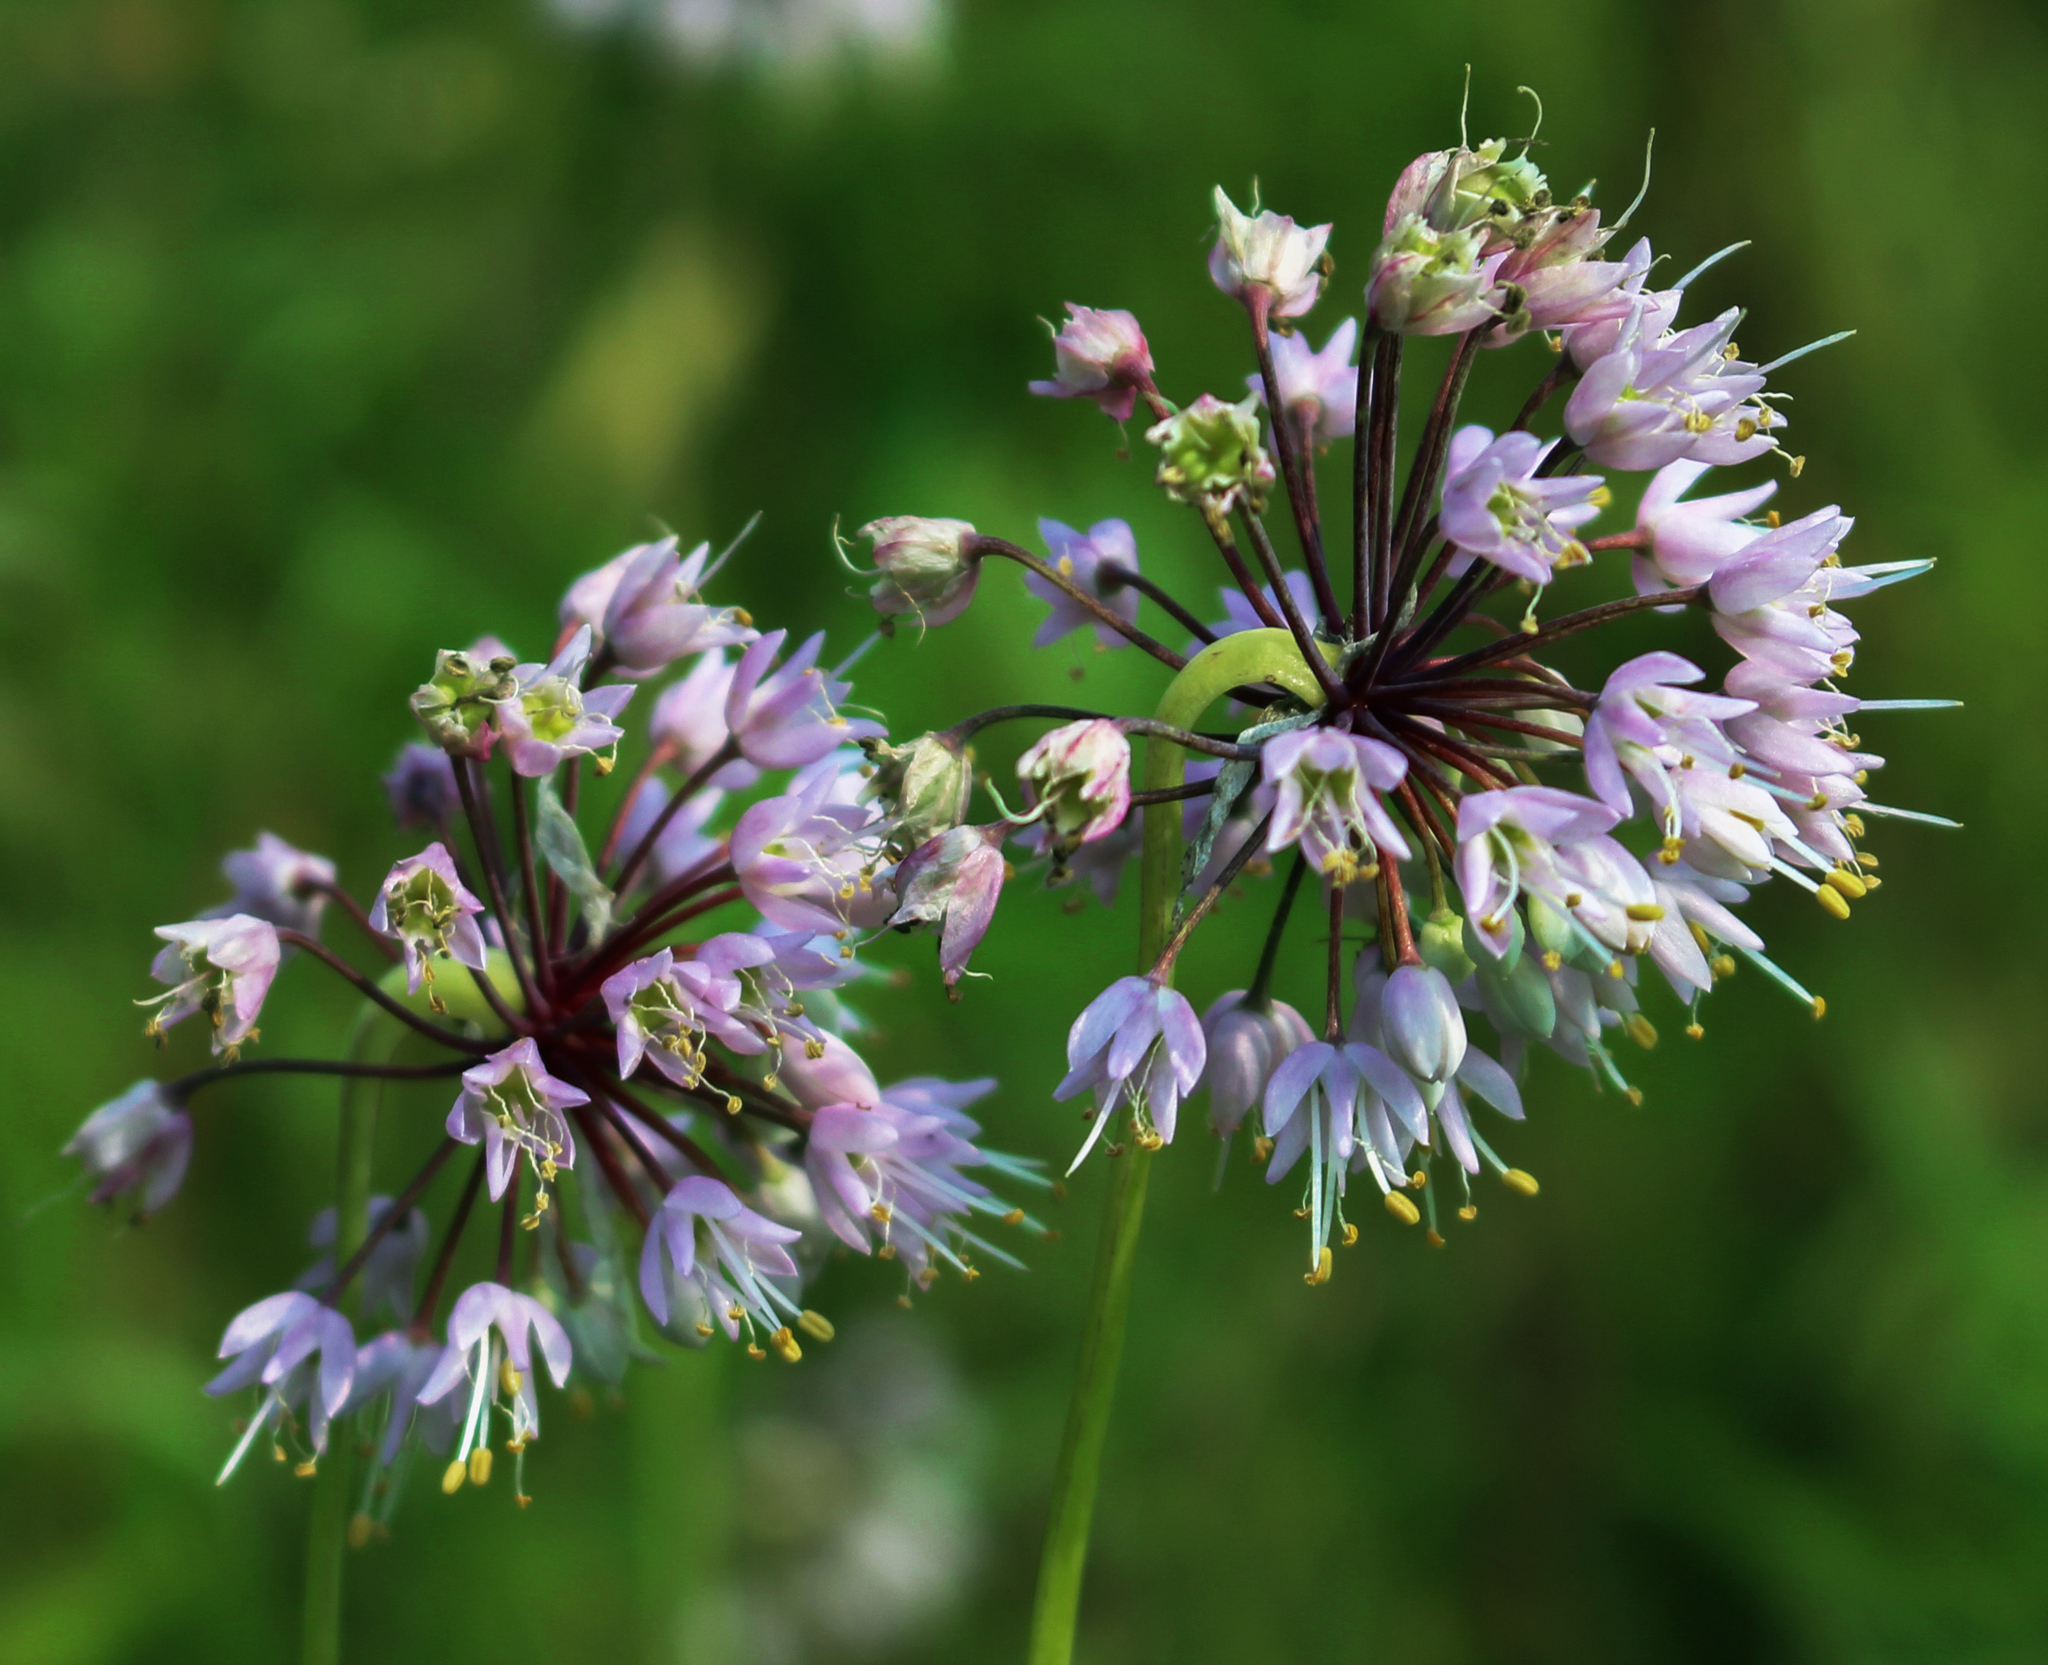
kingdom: Plantae
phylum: Tracheophyta
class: Liliopsida
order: Asparagales
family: Amaryllidaceae
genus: Allium
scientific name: Allium cernuum
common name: Nodding onion
